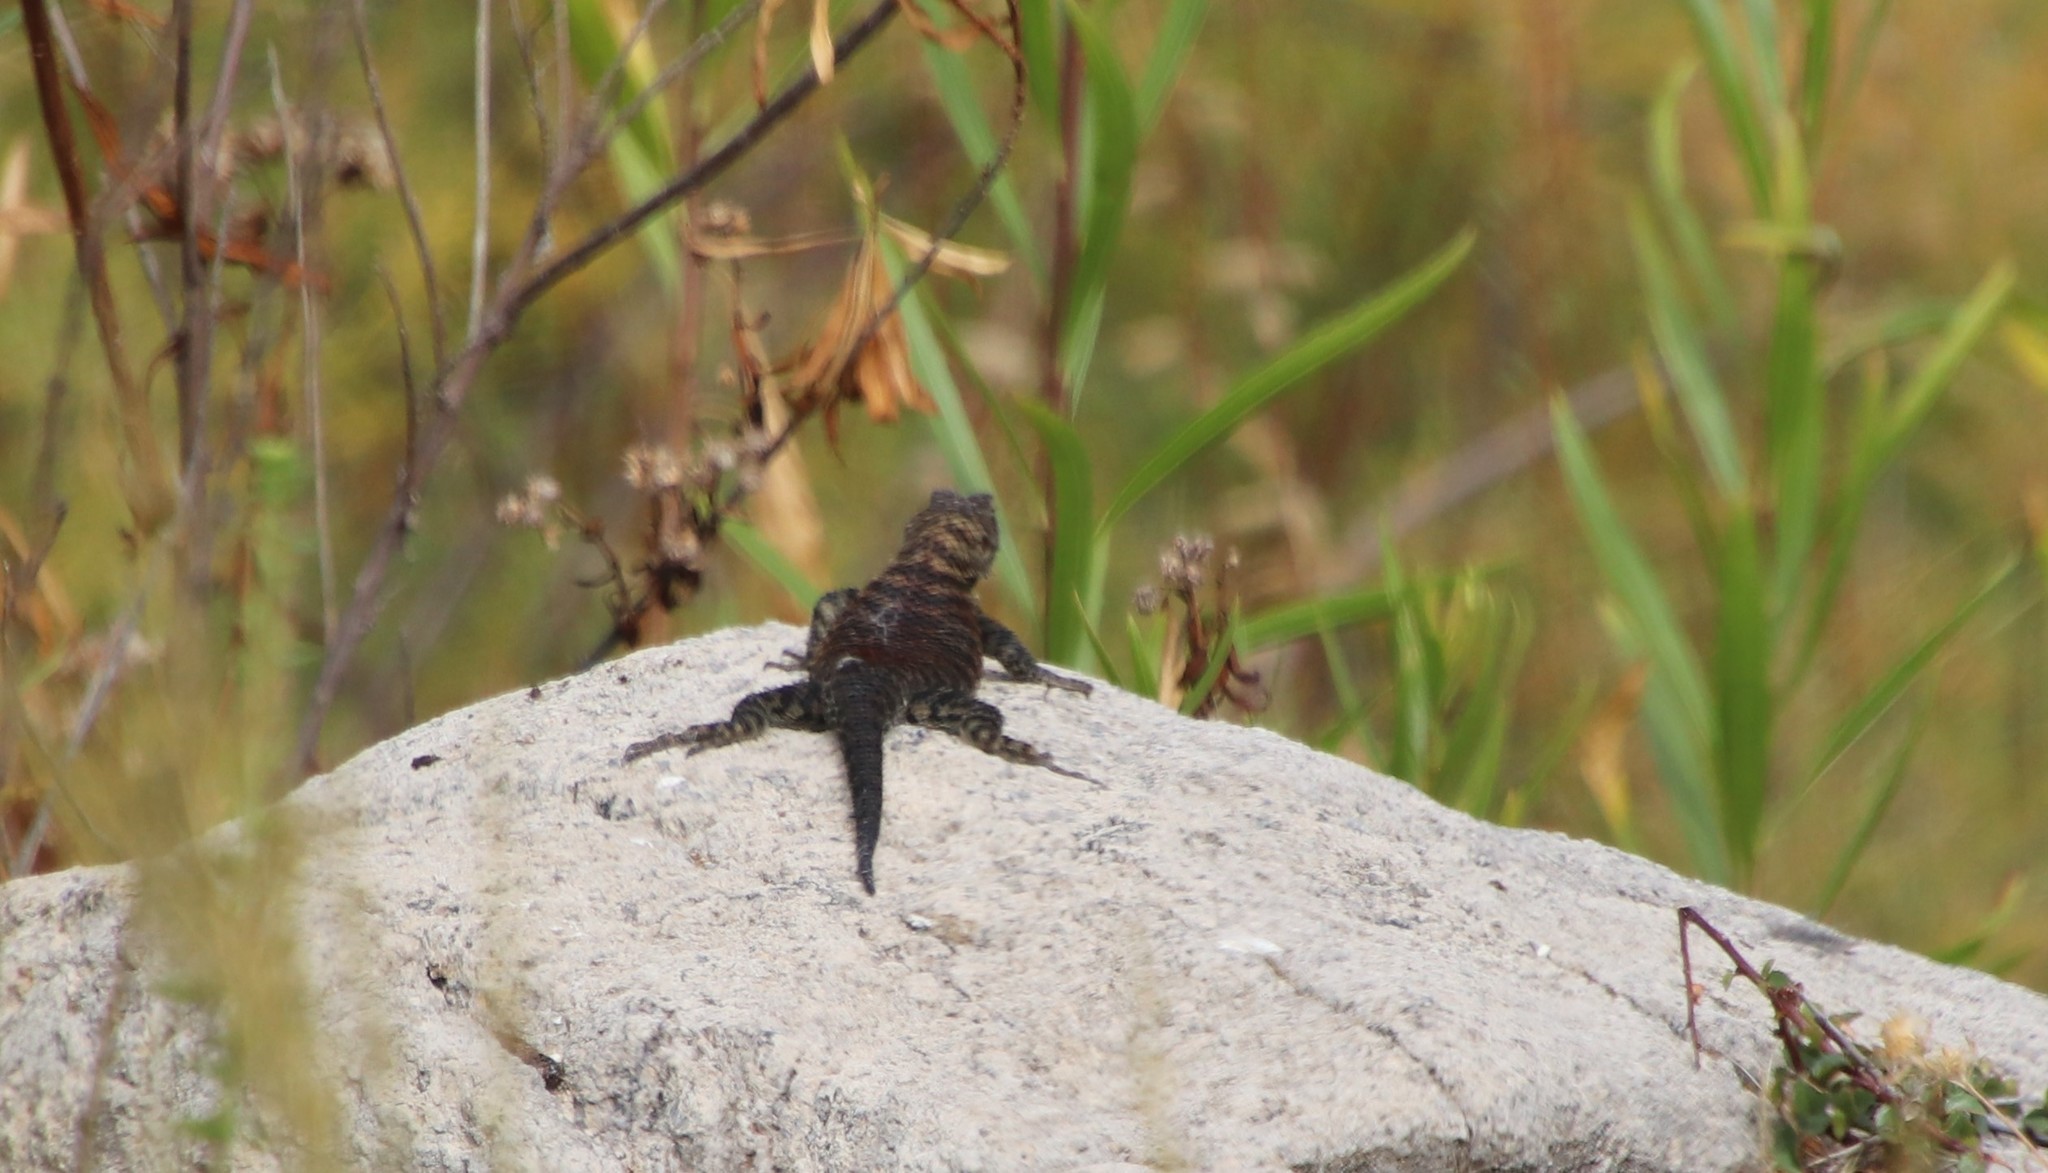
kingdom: Animalia
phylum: Chordata
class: Squamata
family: Phrynosomatidae
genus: Sceloporus
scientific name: Sceloporus orcutti
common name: Granite spiny lizard
